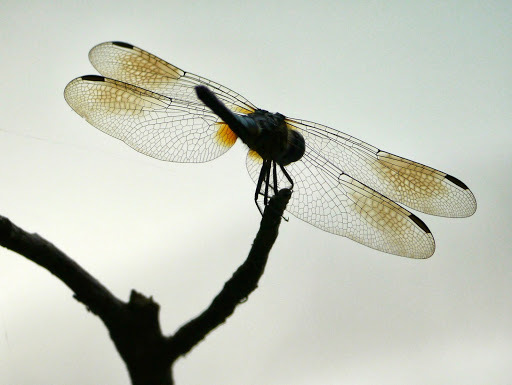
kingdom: Animalia
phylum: Arthropoda
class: Insecta
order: Odonata
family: Libellulidae
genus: Pachydiplax
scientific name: Pachydiplax longipennis
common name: Blue dasher
